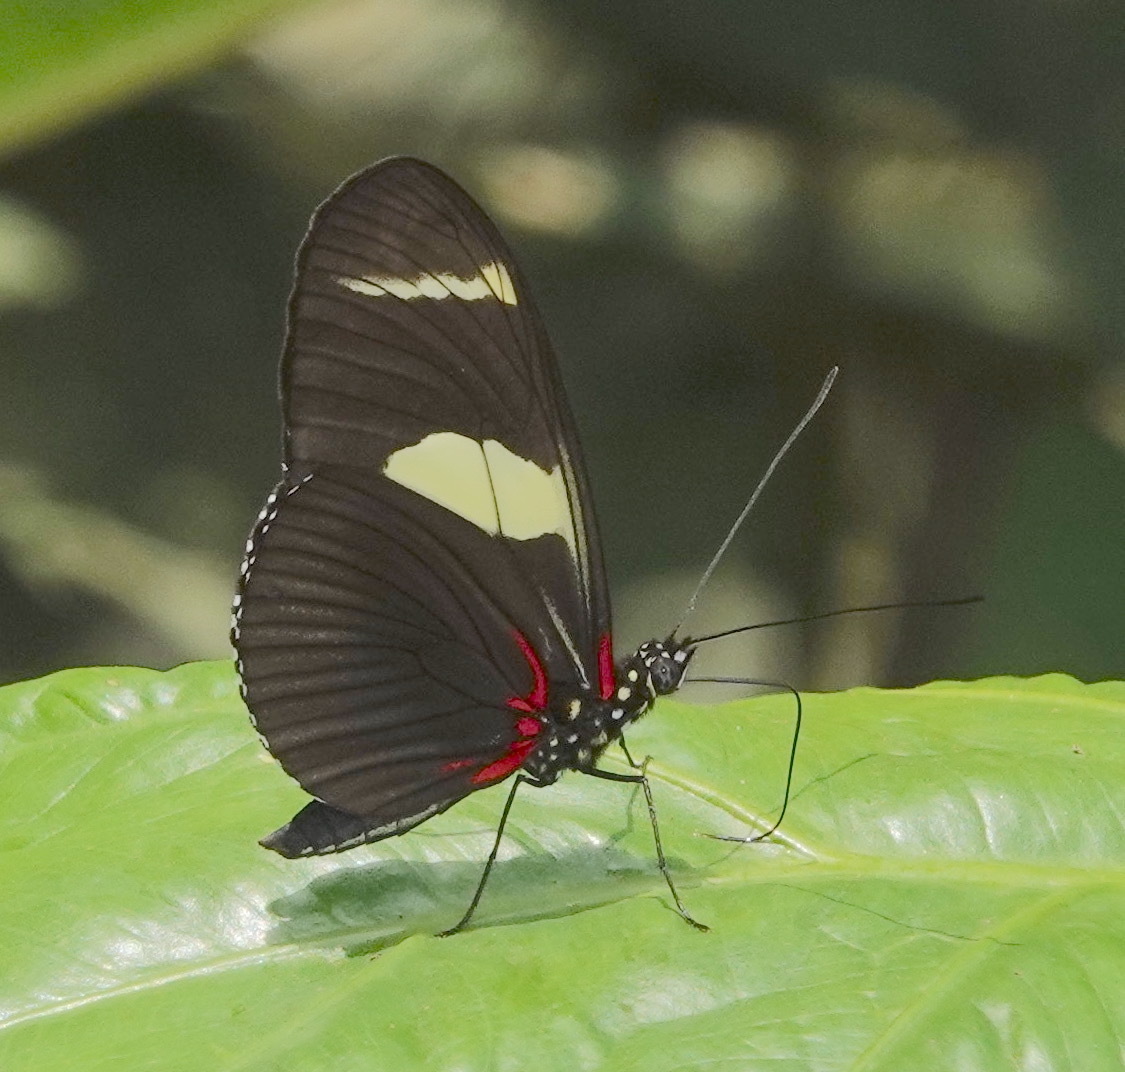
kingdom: Animalia
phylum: Arthropoda
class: Insecta
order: Lepidoptera
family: Nymphalidae
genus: Heliconius
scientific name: Heliconius wallacei
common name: Wallace's longwing
